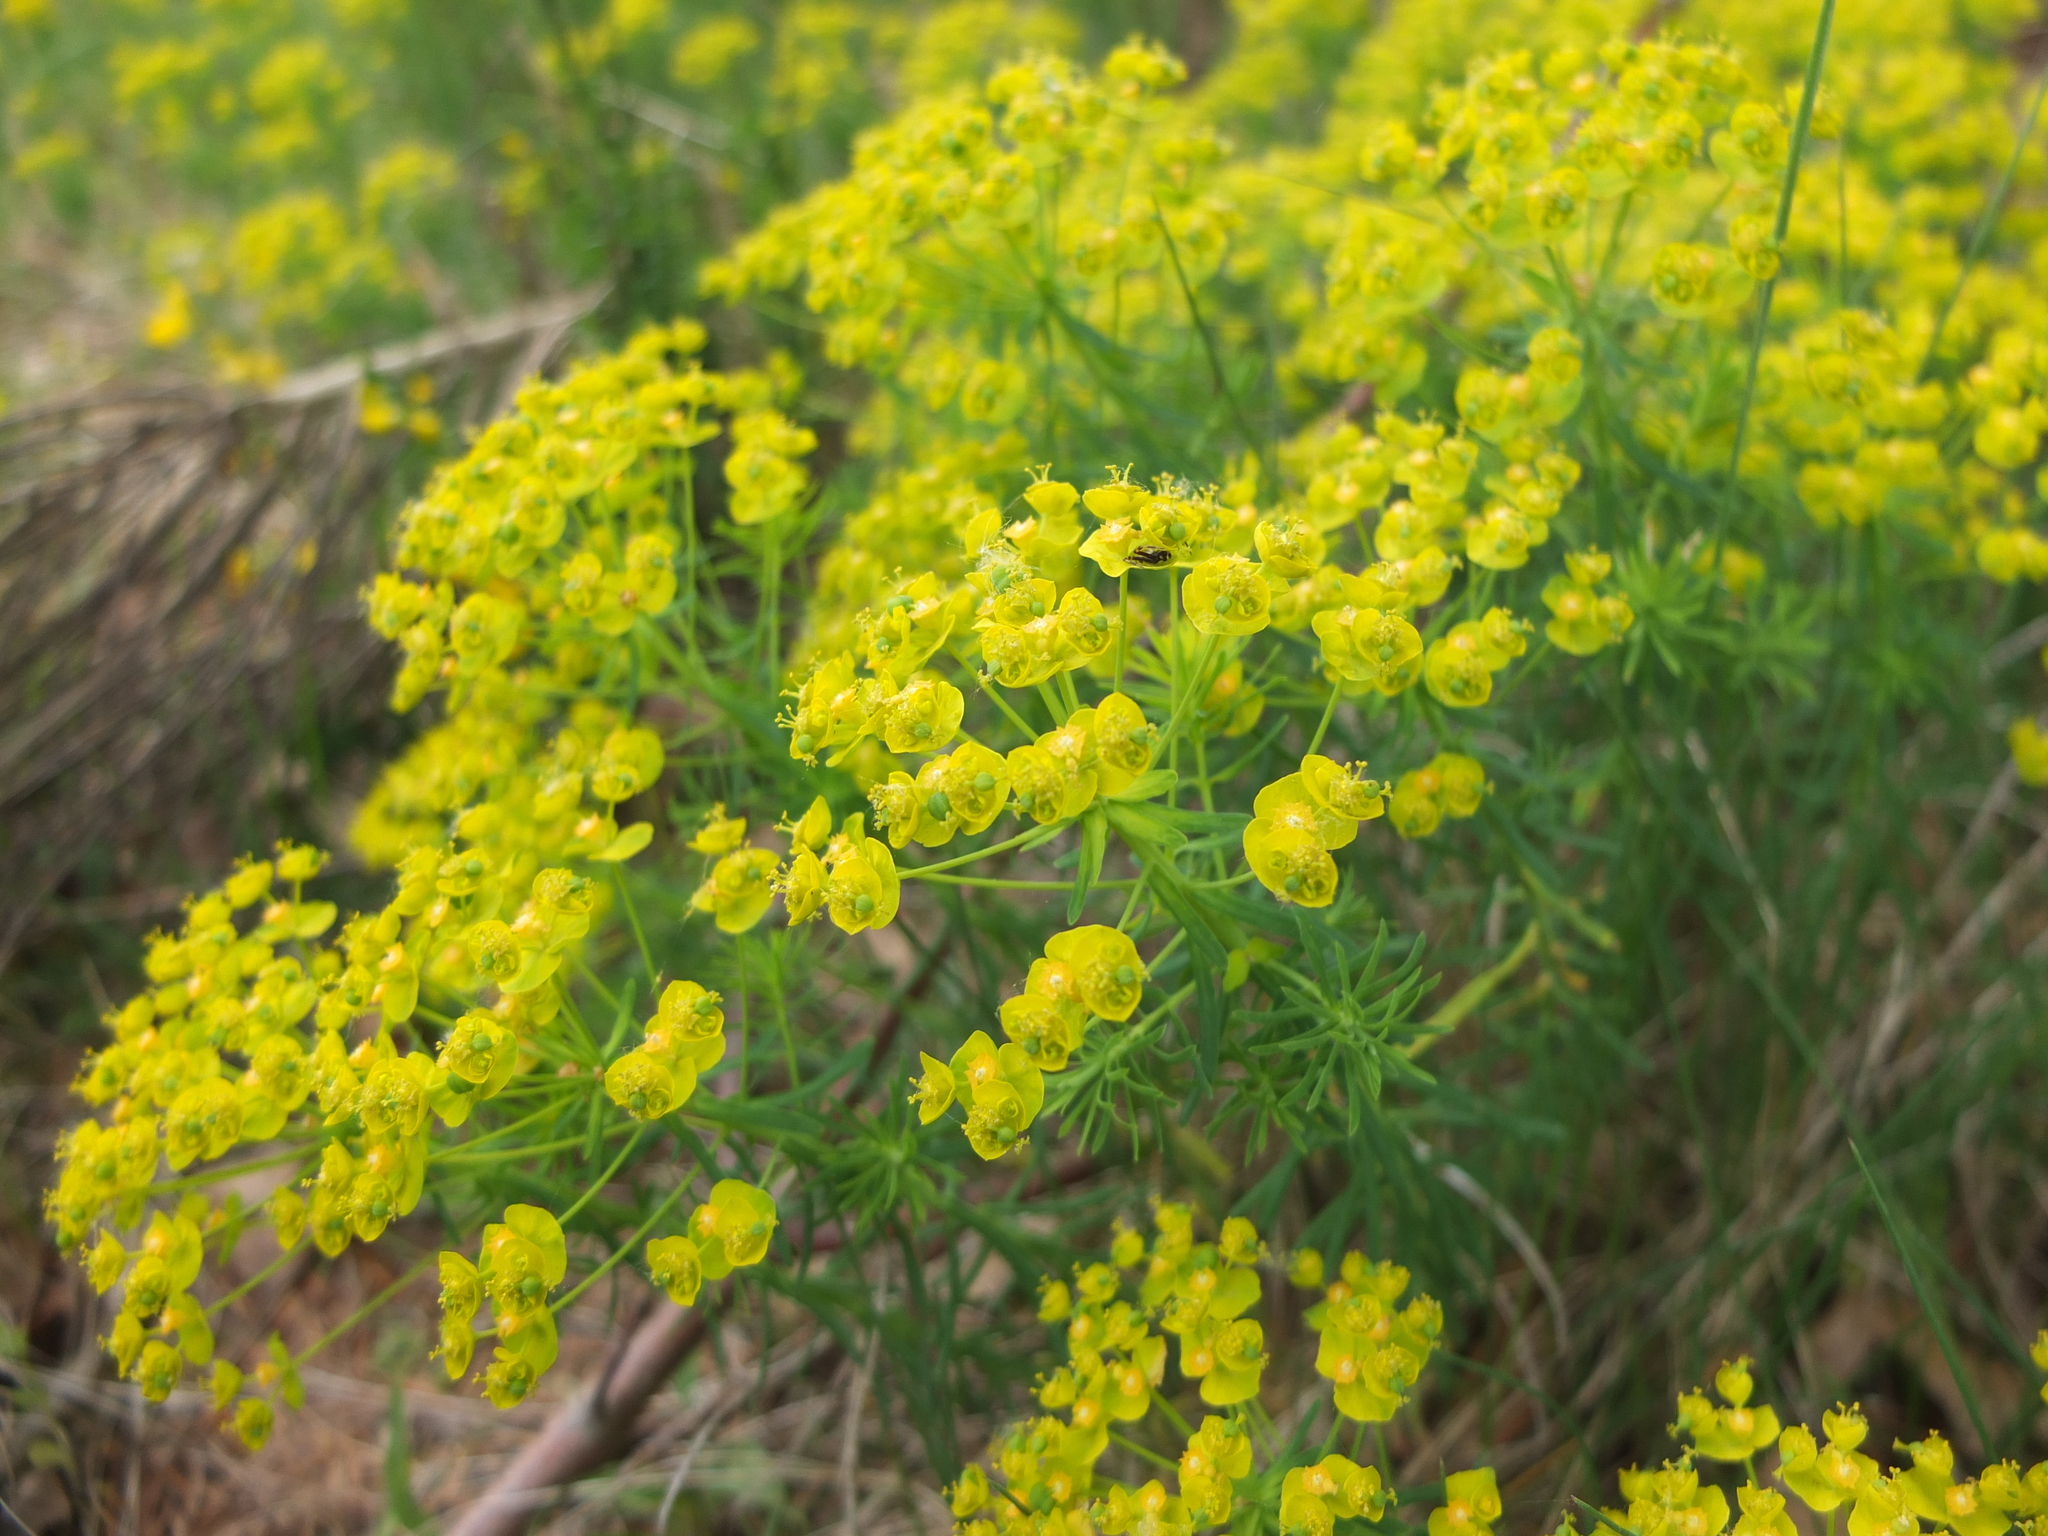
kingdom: Plantae
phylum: Tracheophyta
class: Magnoliopsida
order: Malpighiales
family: Euphorbiaceae
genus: Euphorbia
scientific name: Euphorbia cyparissias
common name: Cypress spurge
